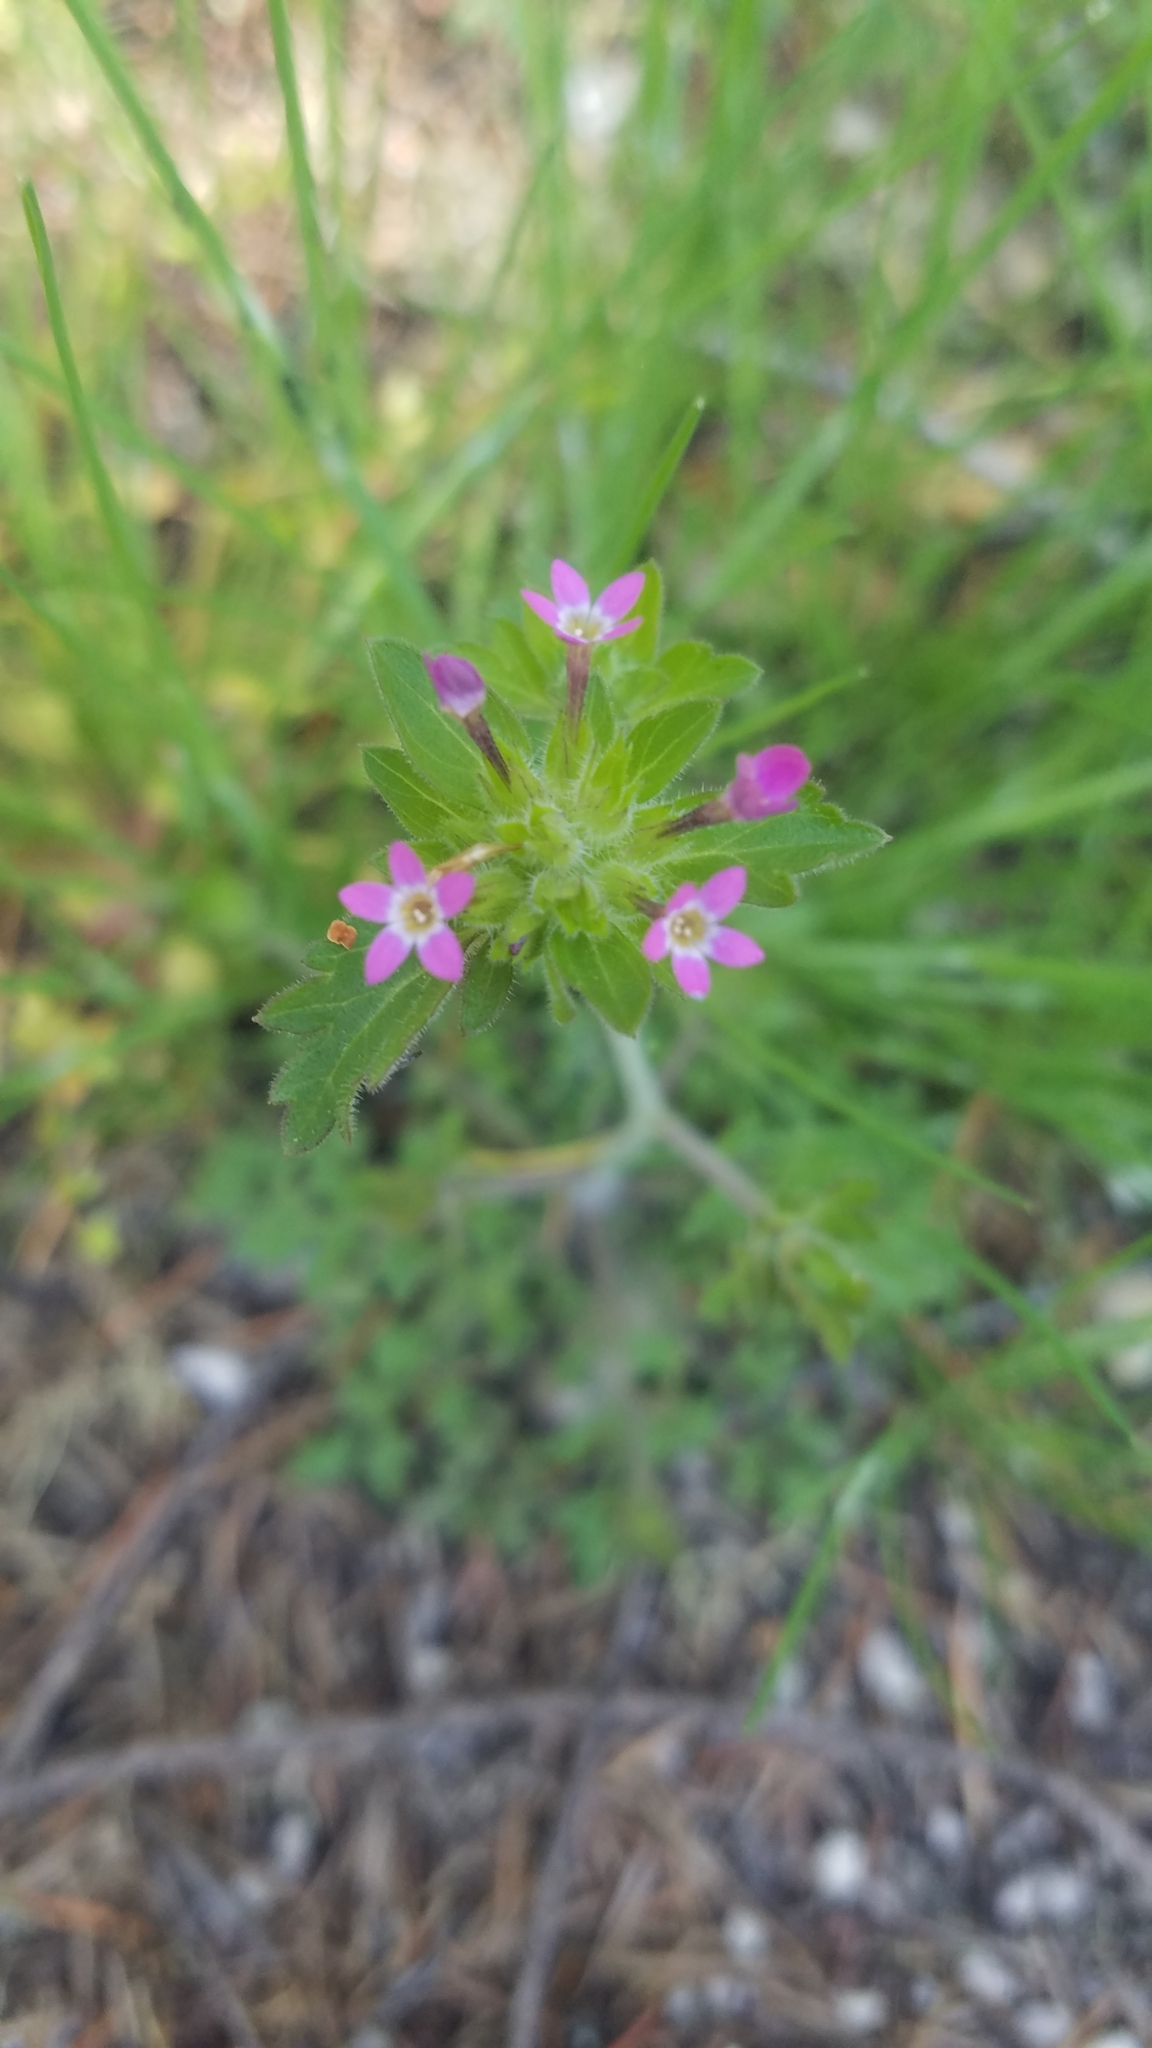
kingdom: Plantae
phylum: Tracheophyta
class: Magnoliopsida
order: Ericales
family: Polemoniaceae
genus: Collomia
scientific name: Collomia heterophylla
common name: Variable-leaved collomia
